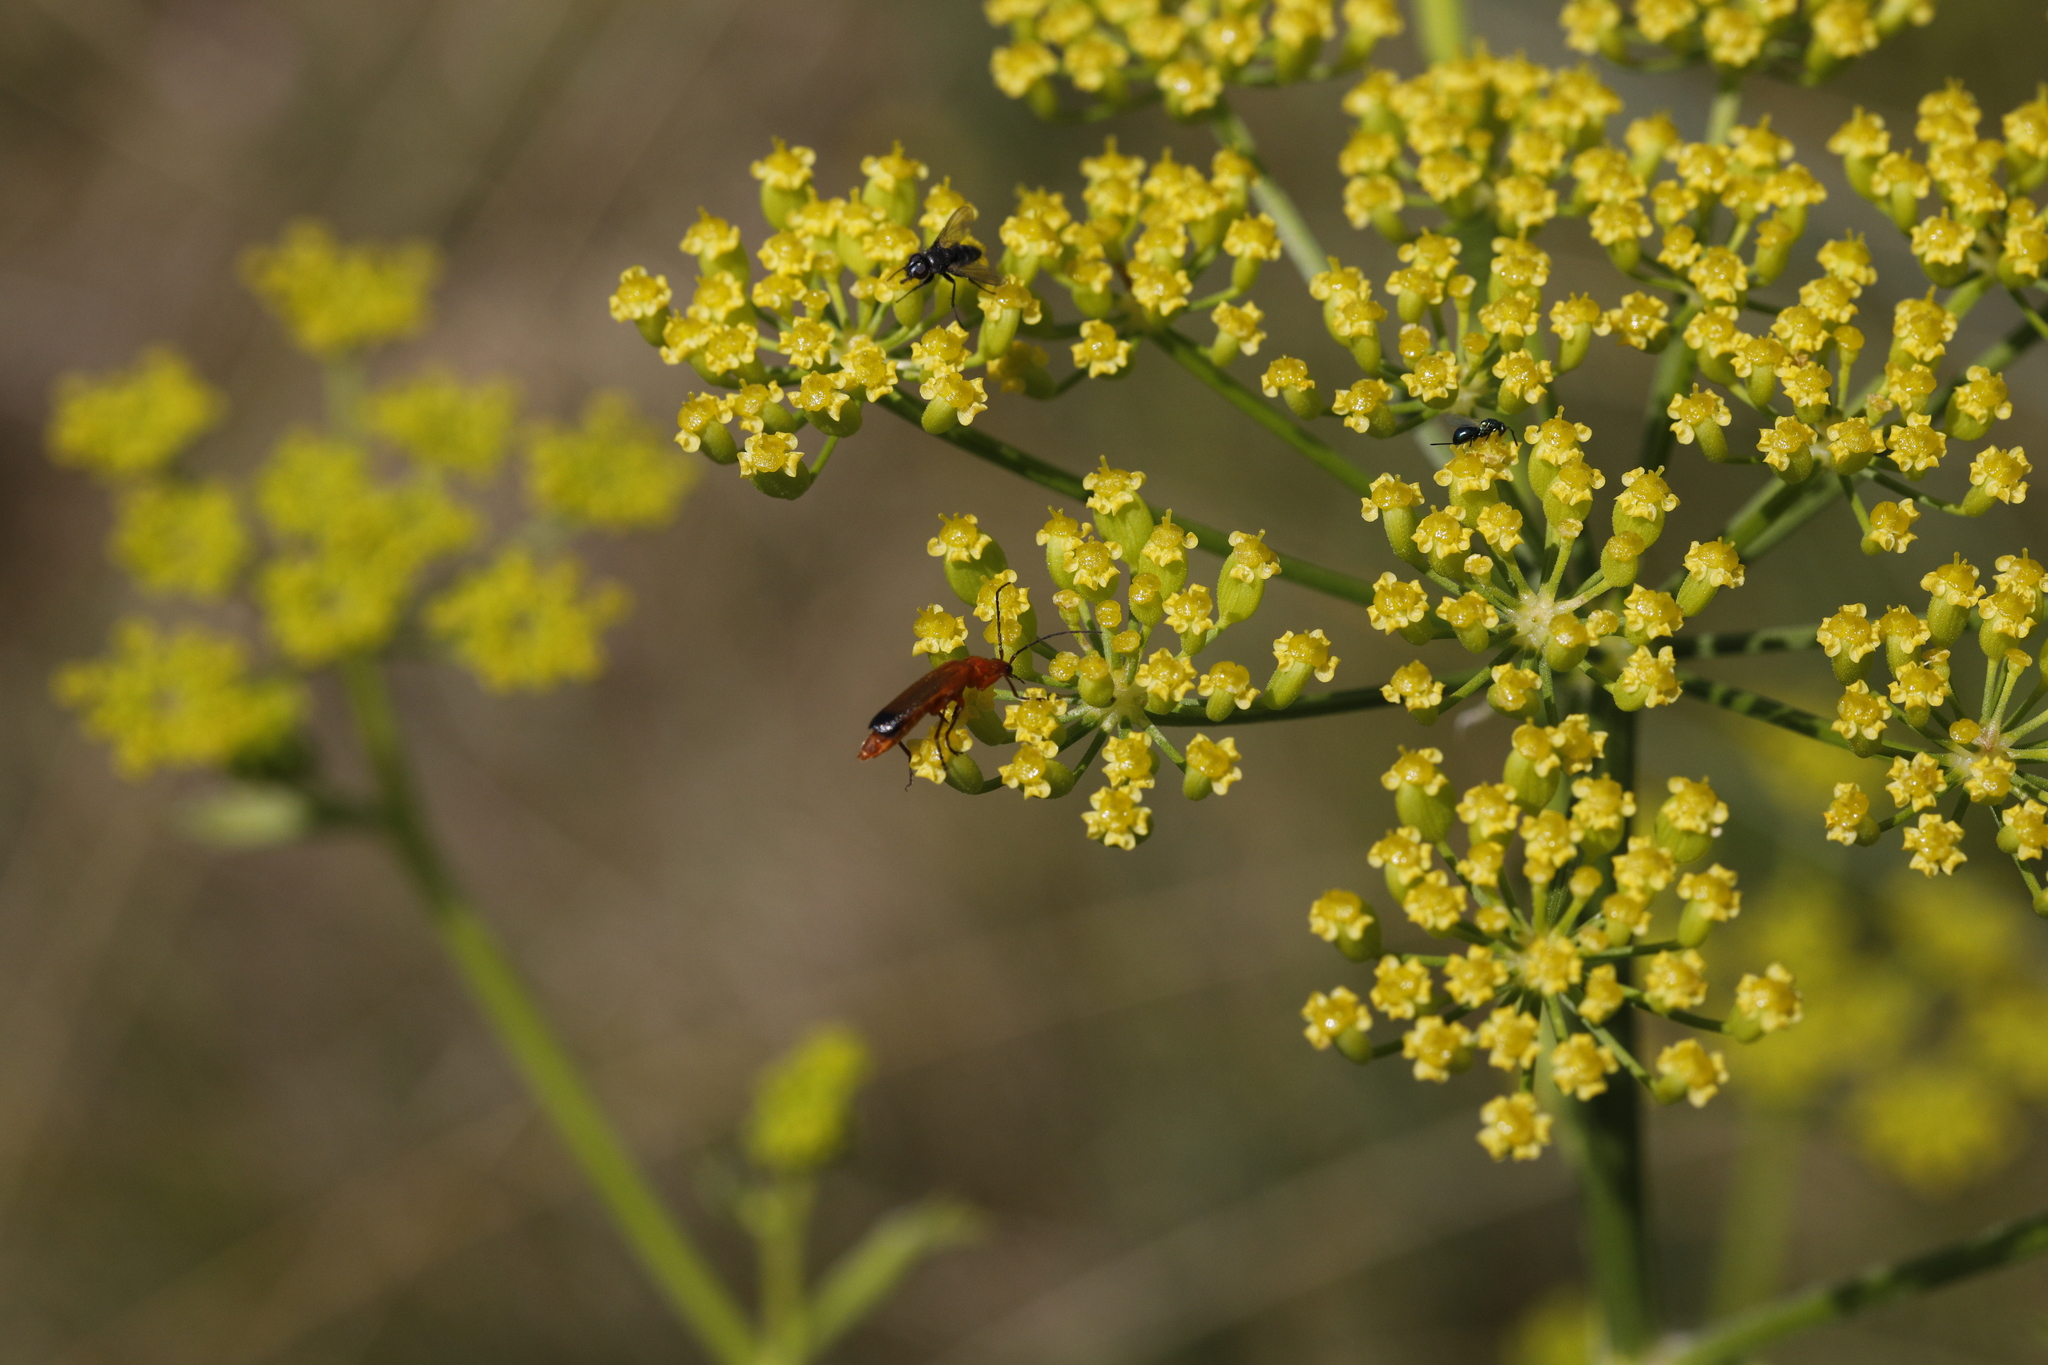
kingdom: Animalia
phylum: Arthropoda
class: Insecta
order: Coleoptera
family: Cantharidae
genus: Rhagonycha
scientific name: Rhagonycha fulva
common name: Common red soldier beetle
